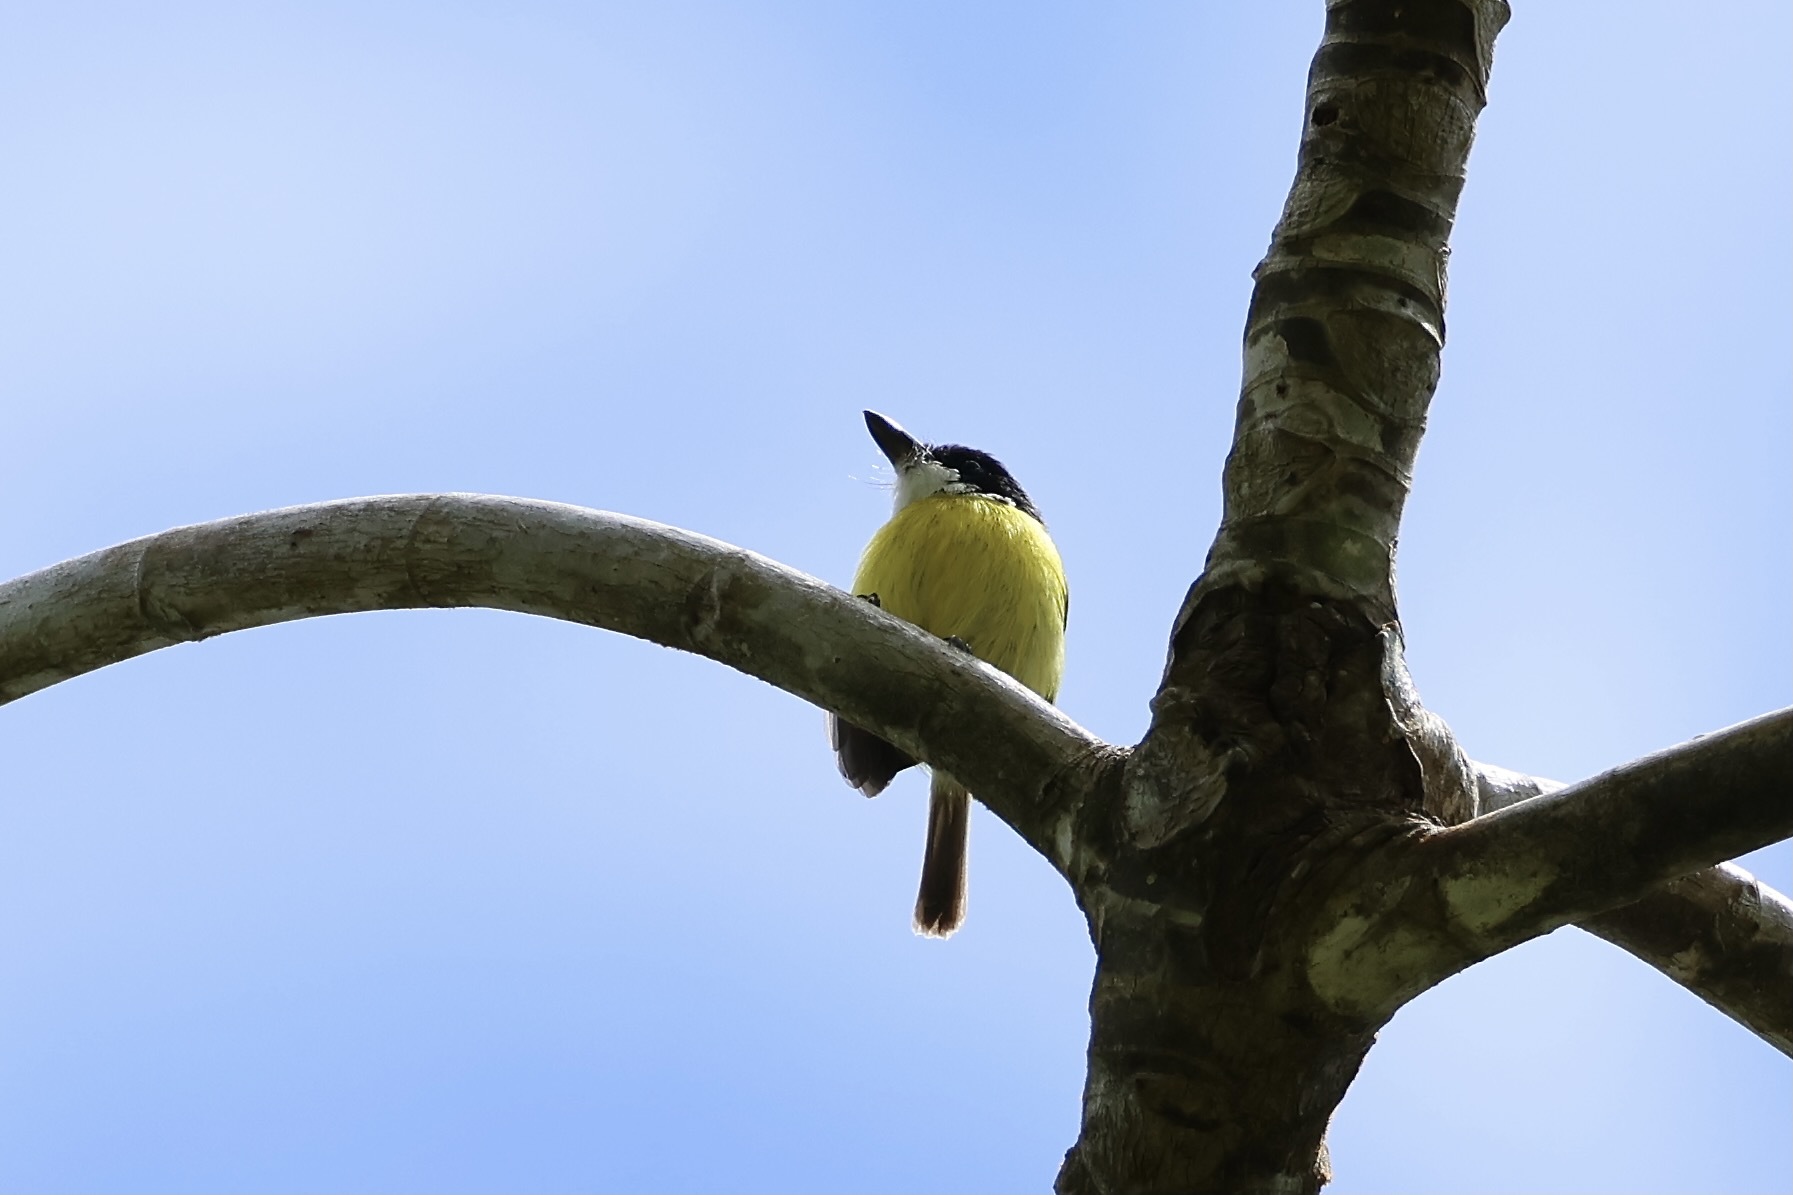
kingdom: Animalia
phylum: Chordata
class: Aves
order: Passeriformes
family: Tyrannidae
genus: Todirostrum
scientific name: Todirostrum nigriceps
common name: Black-headed tody-flycatcher
